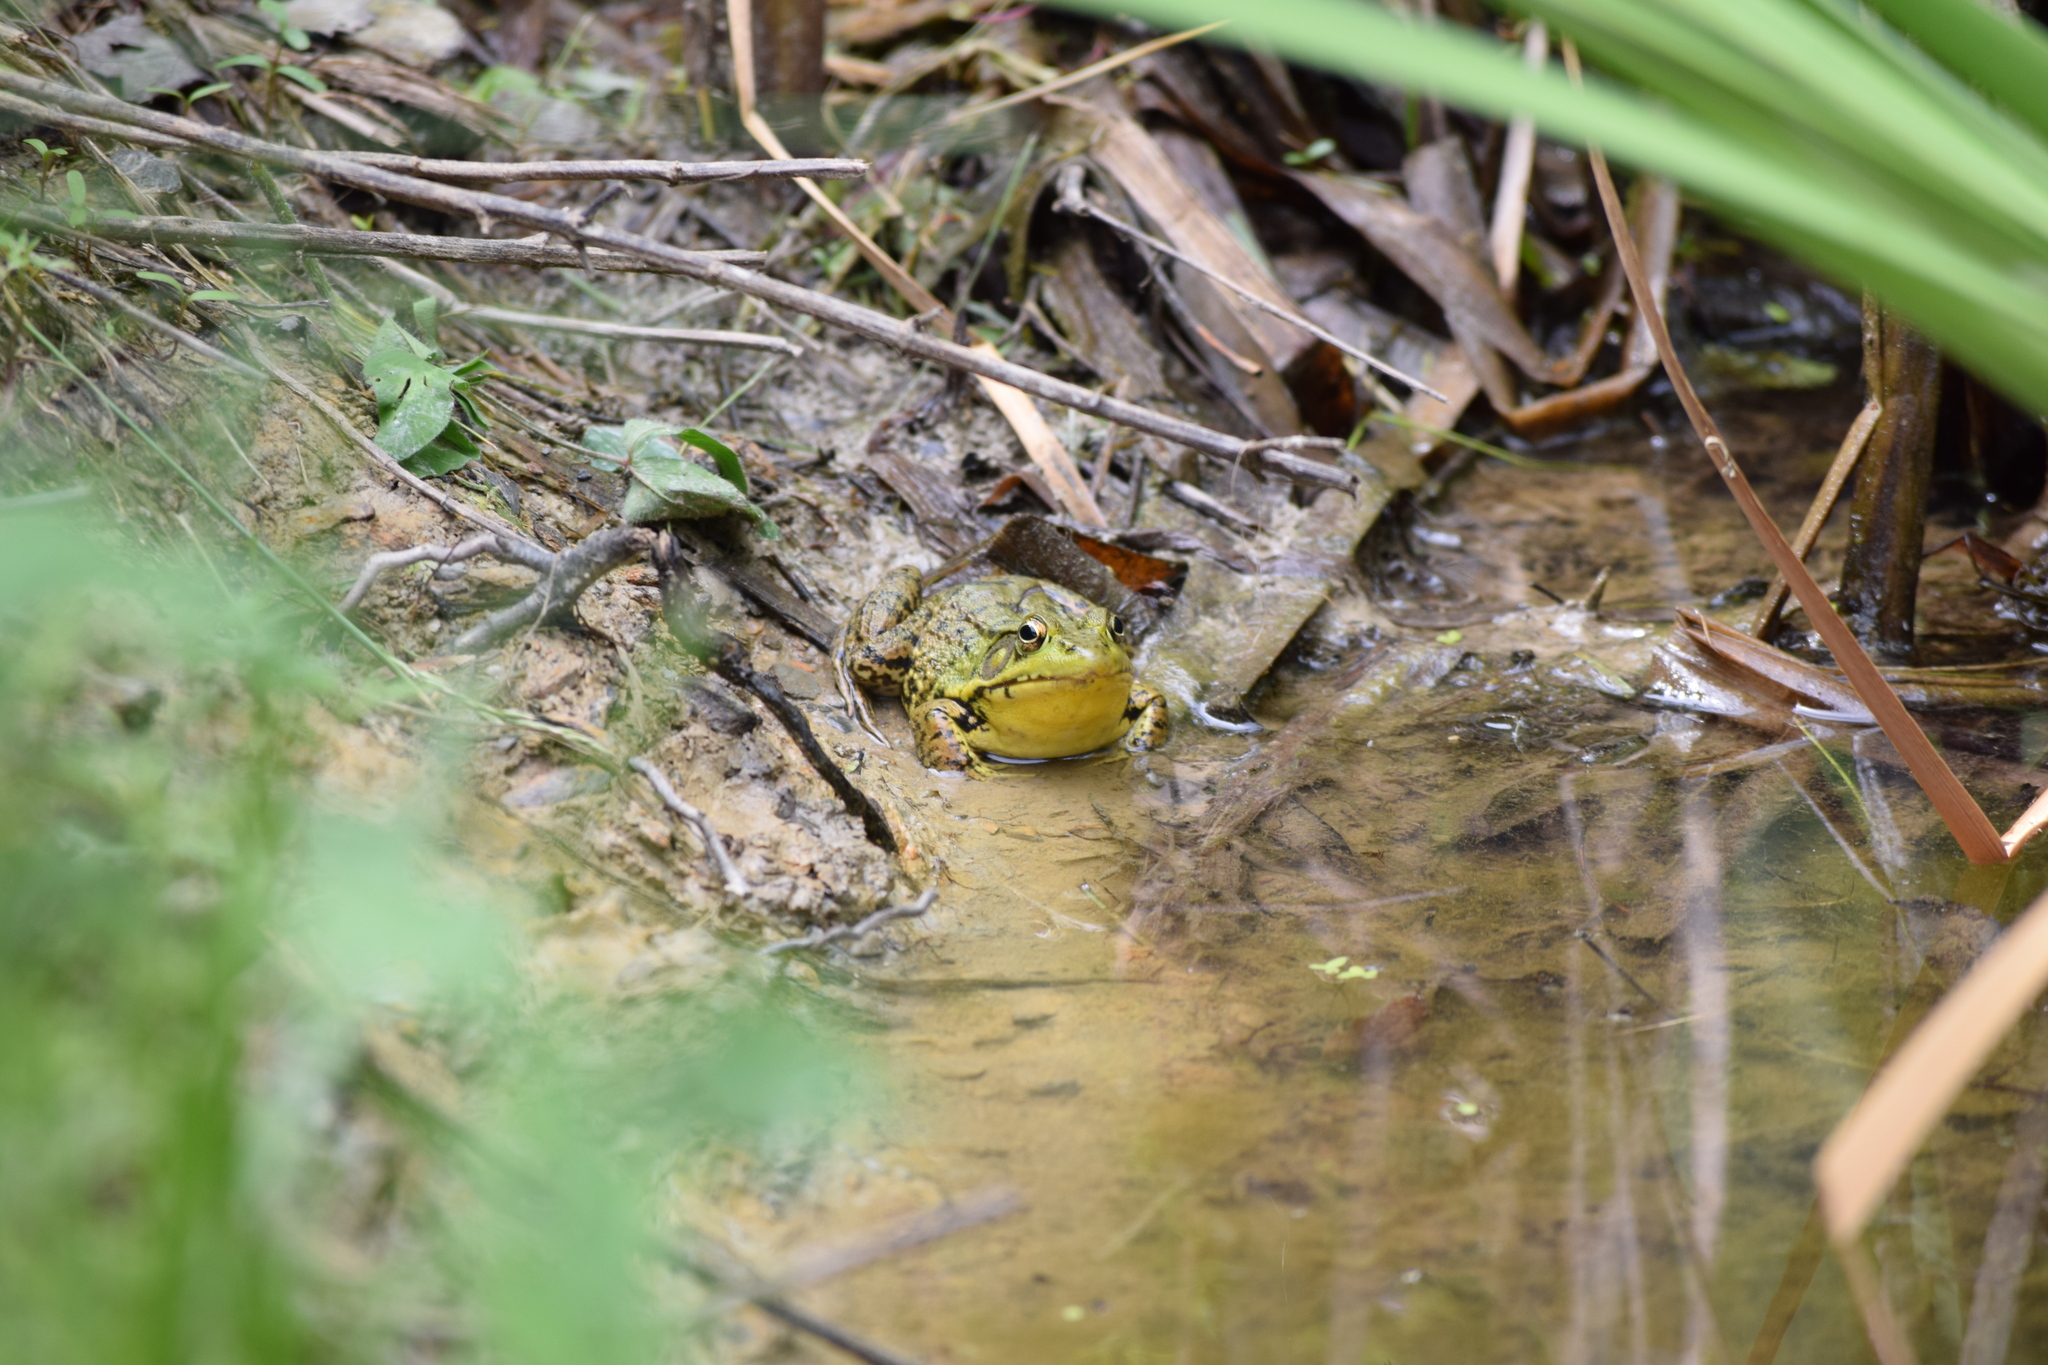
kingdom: Animalia
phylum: Chordata
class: Amphibia
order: Anura
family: Ranidae
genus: Lithobates
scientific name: Lithobates clamitans
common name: Green frog
